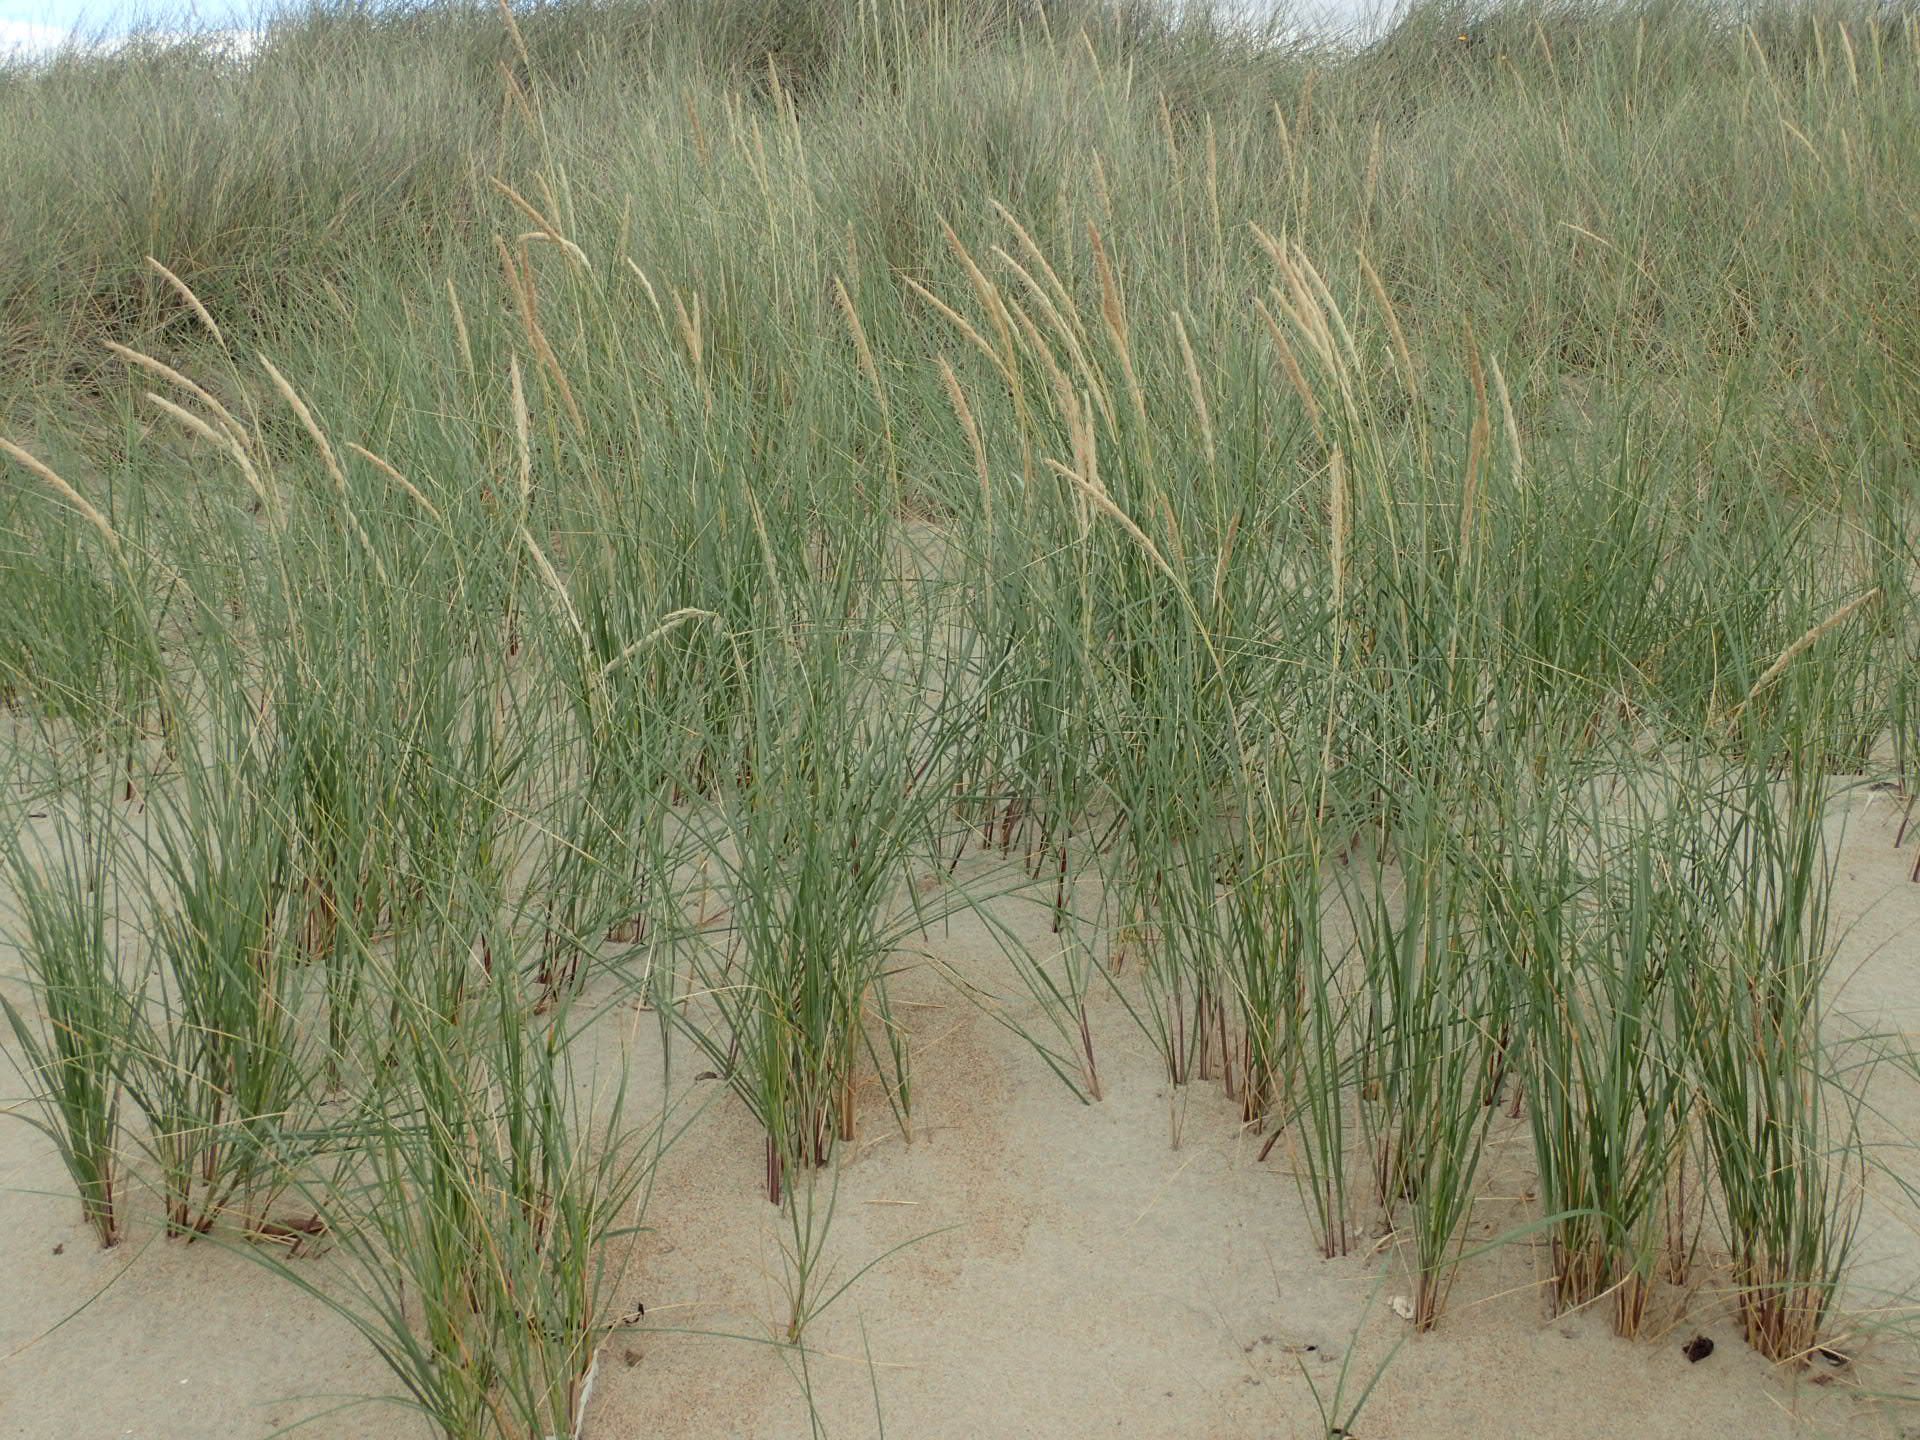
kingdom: Plantae
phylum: Tracheophyta
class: Liliopsida
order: Poales
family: Poaceae
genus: Calamagrostis
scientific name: Calamagrostis arenaria
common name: European beachgrass
